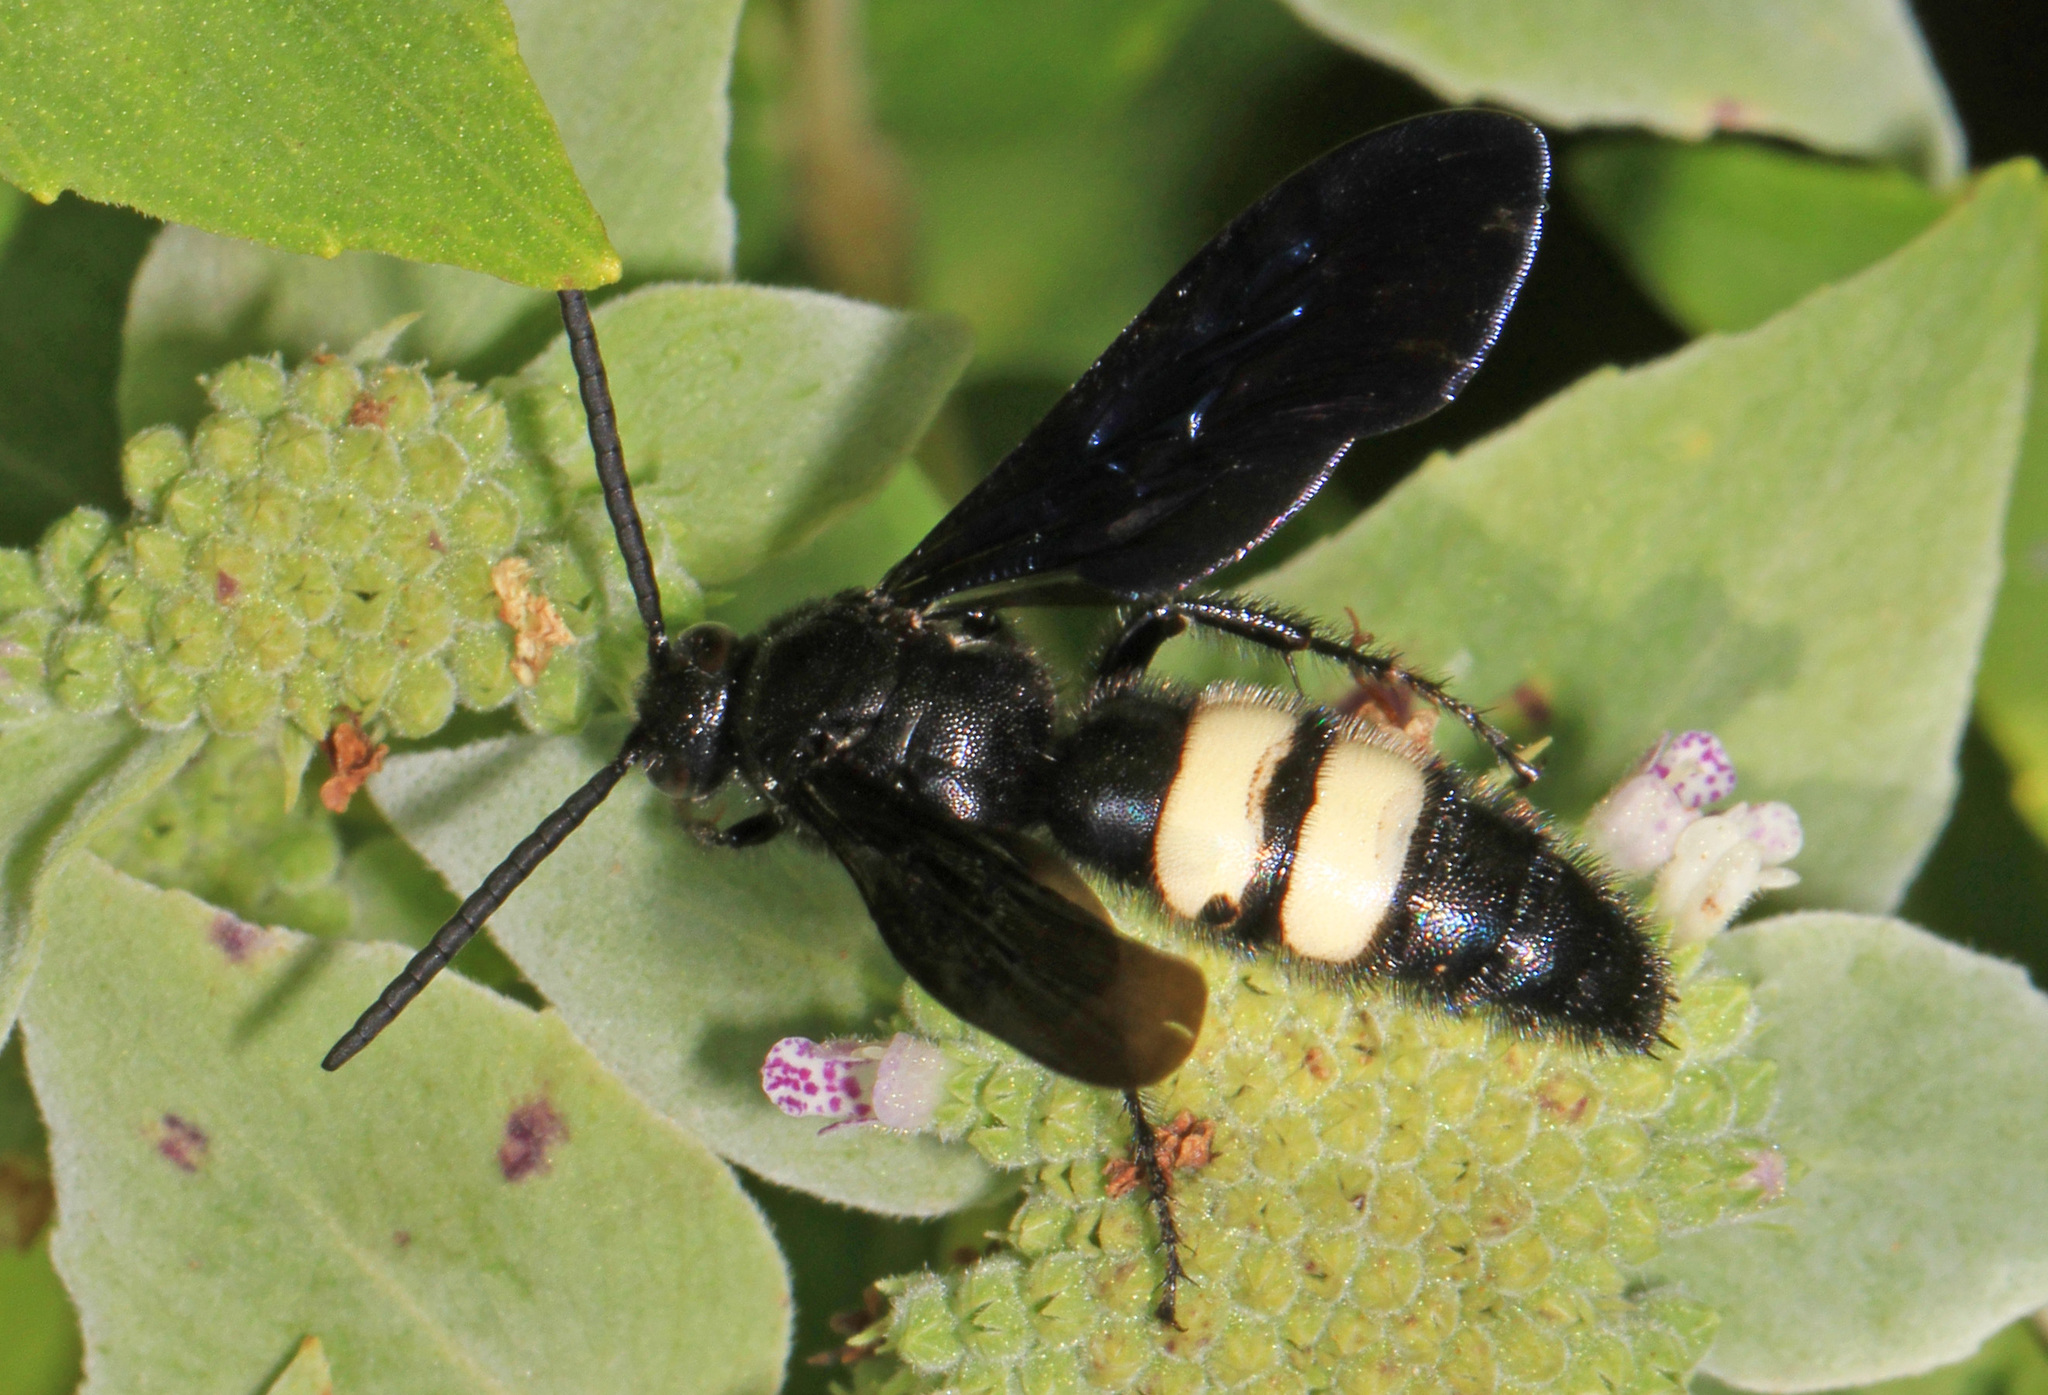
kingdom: Animalia
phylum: Arthropoda
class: Insecta
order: Hymenoptera
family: Scoliidae
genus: Scolia
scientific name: Scolia bicincta
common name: Double-banded scoliid wasp
